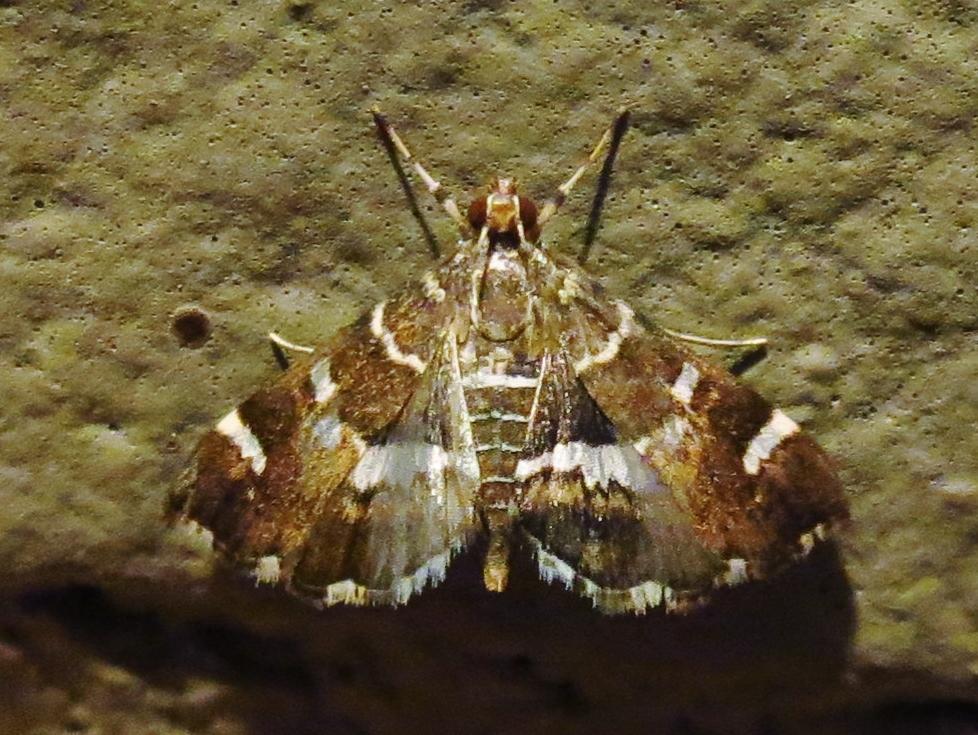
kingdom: Animalia
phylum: Arthropoda
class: Insecta
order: Lepidoptera
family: Crambidae
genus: Hymenia
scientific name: Hymenia perspectalis
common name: Spotted beet webworm
